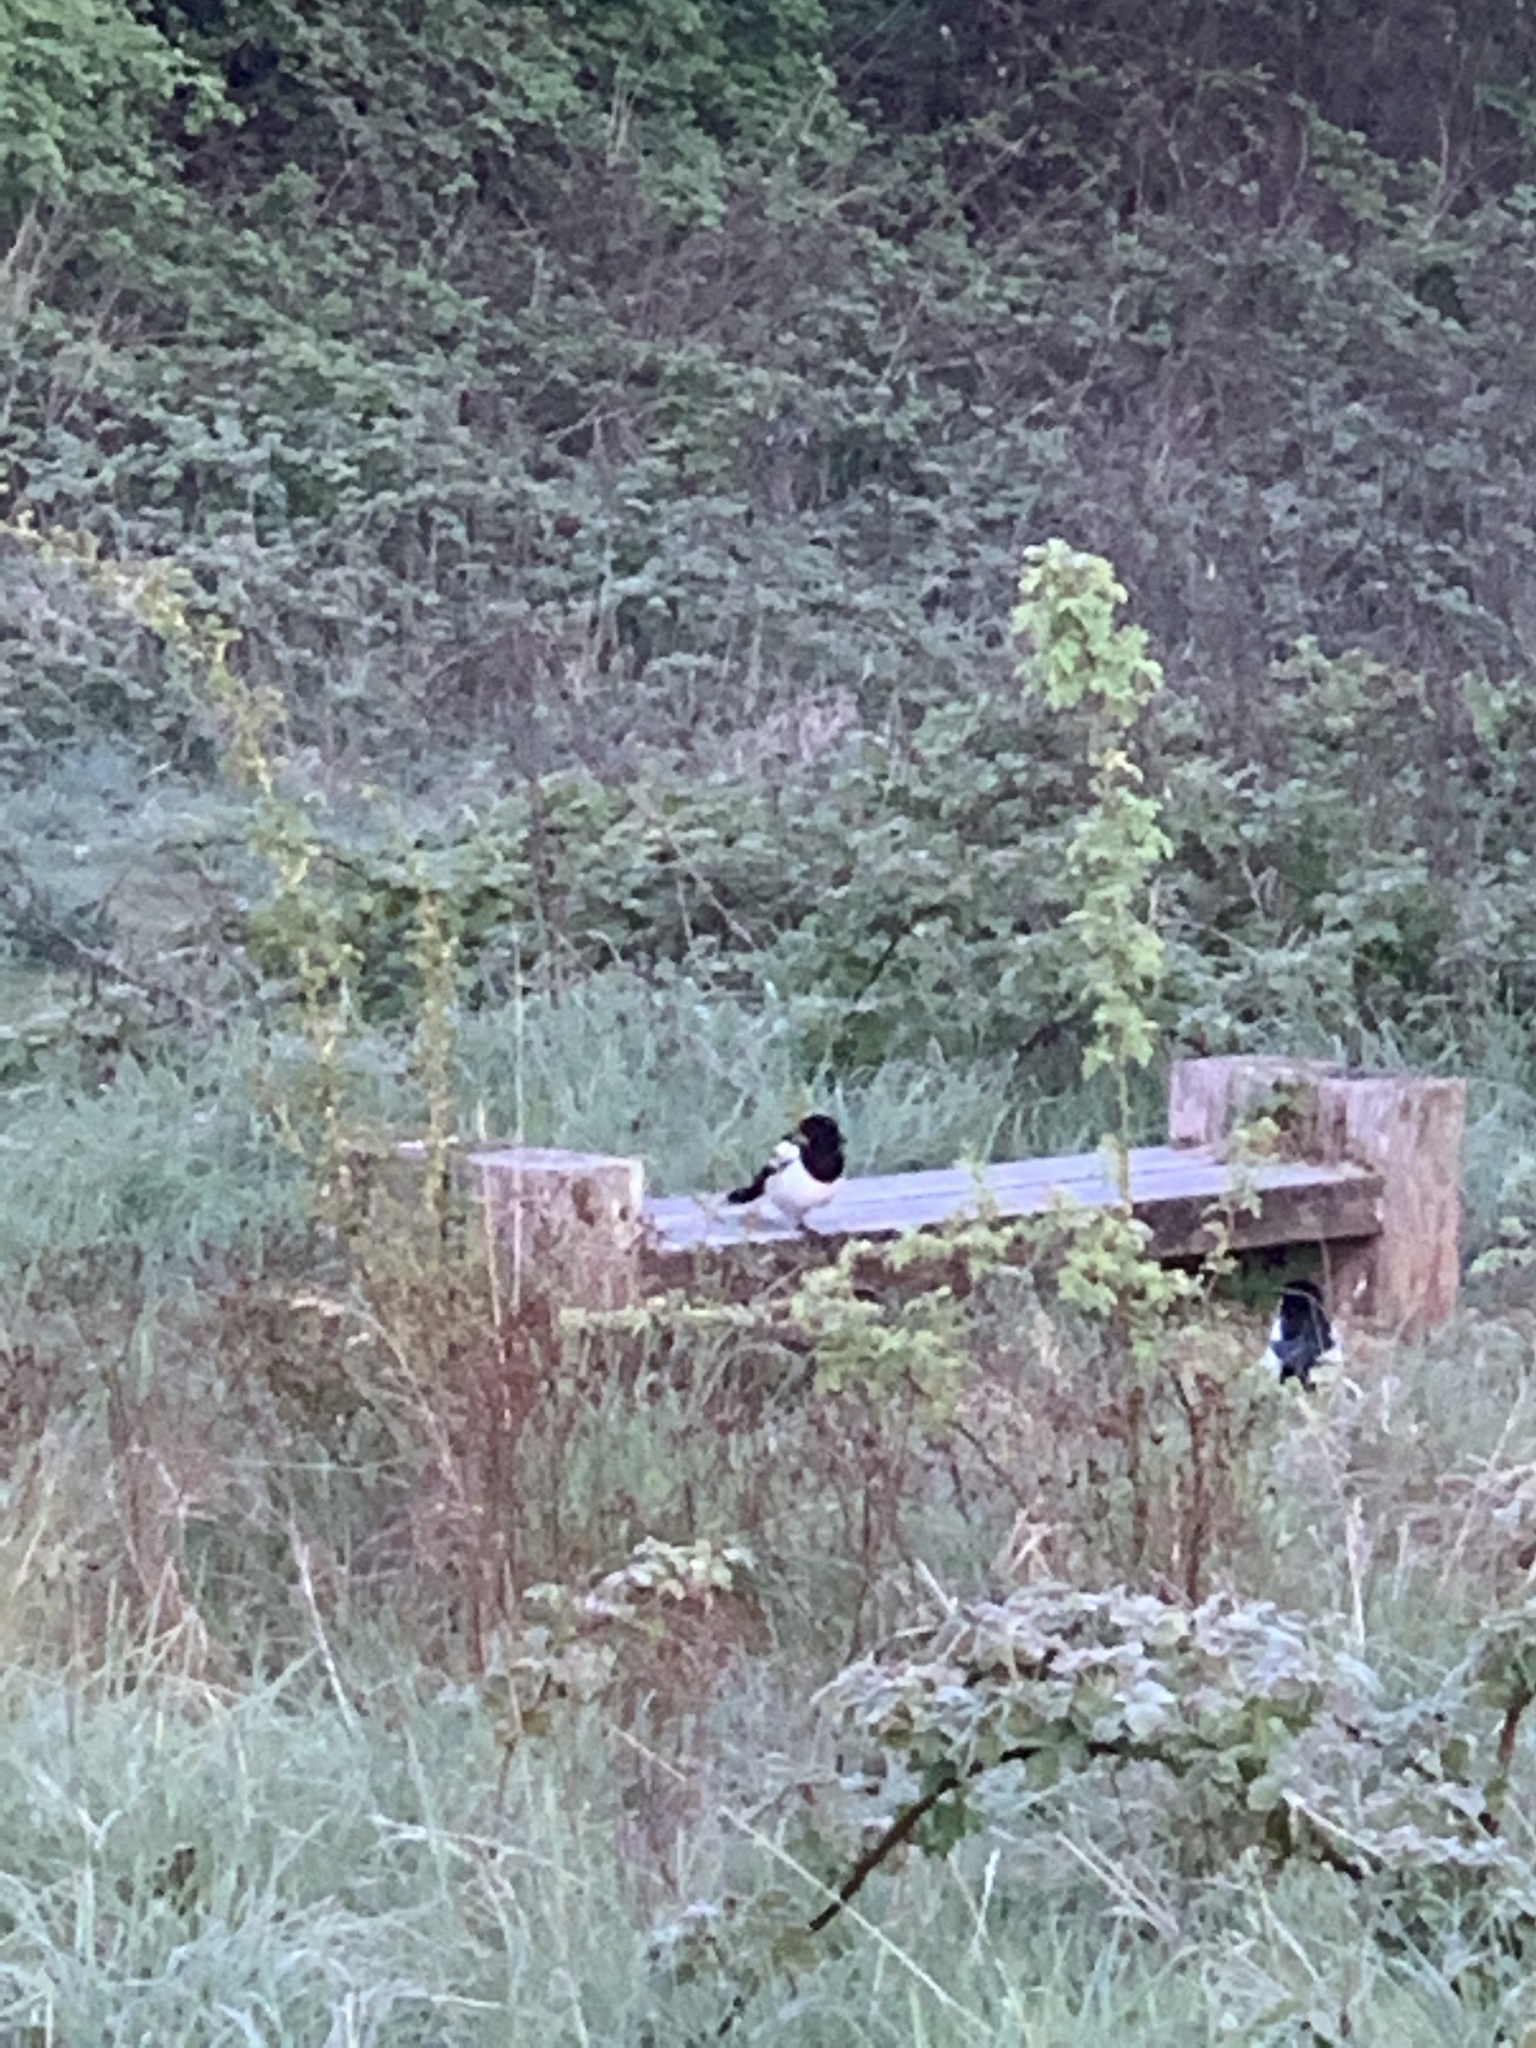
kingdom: Animalia
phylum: Chordata
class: Aves
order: Passeriformes
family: Corvidae
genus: Pica
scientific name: Pica pica
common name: Eurasian magpie
